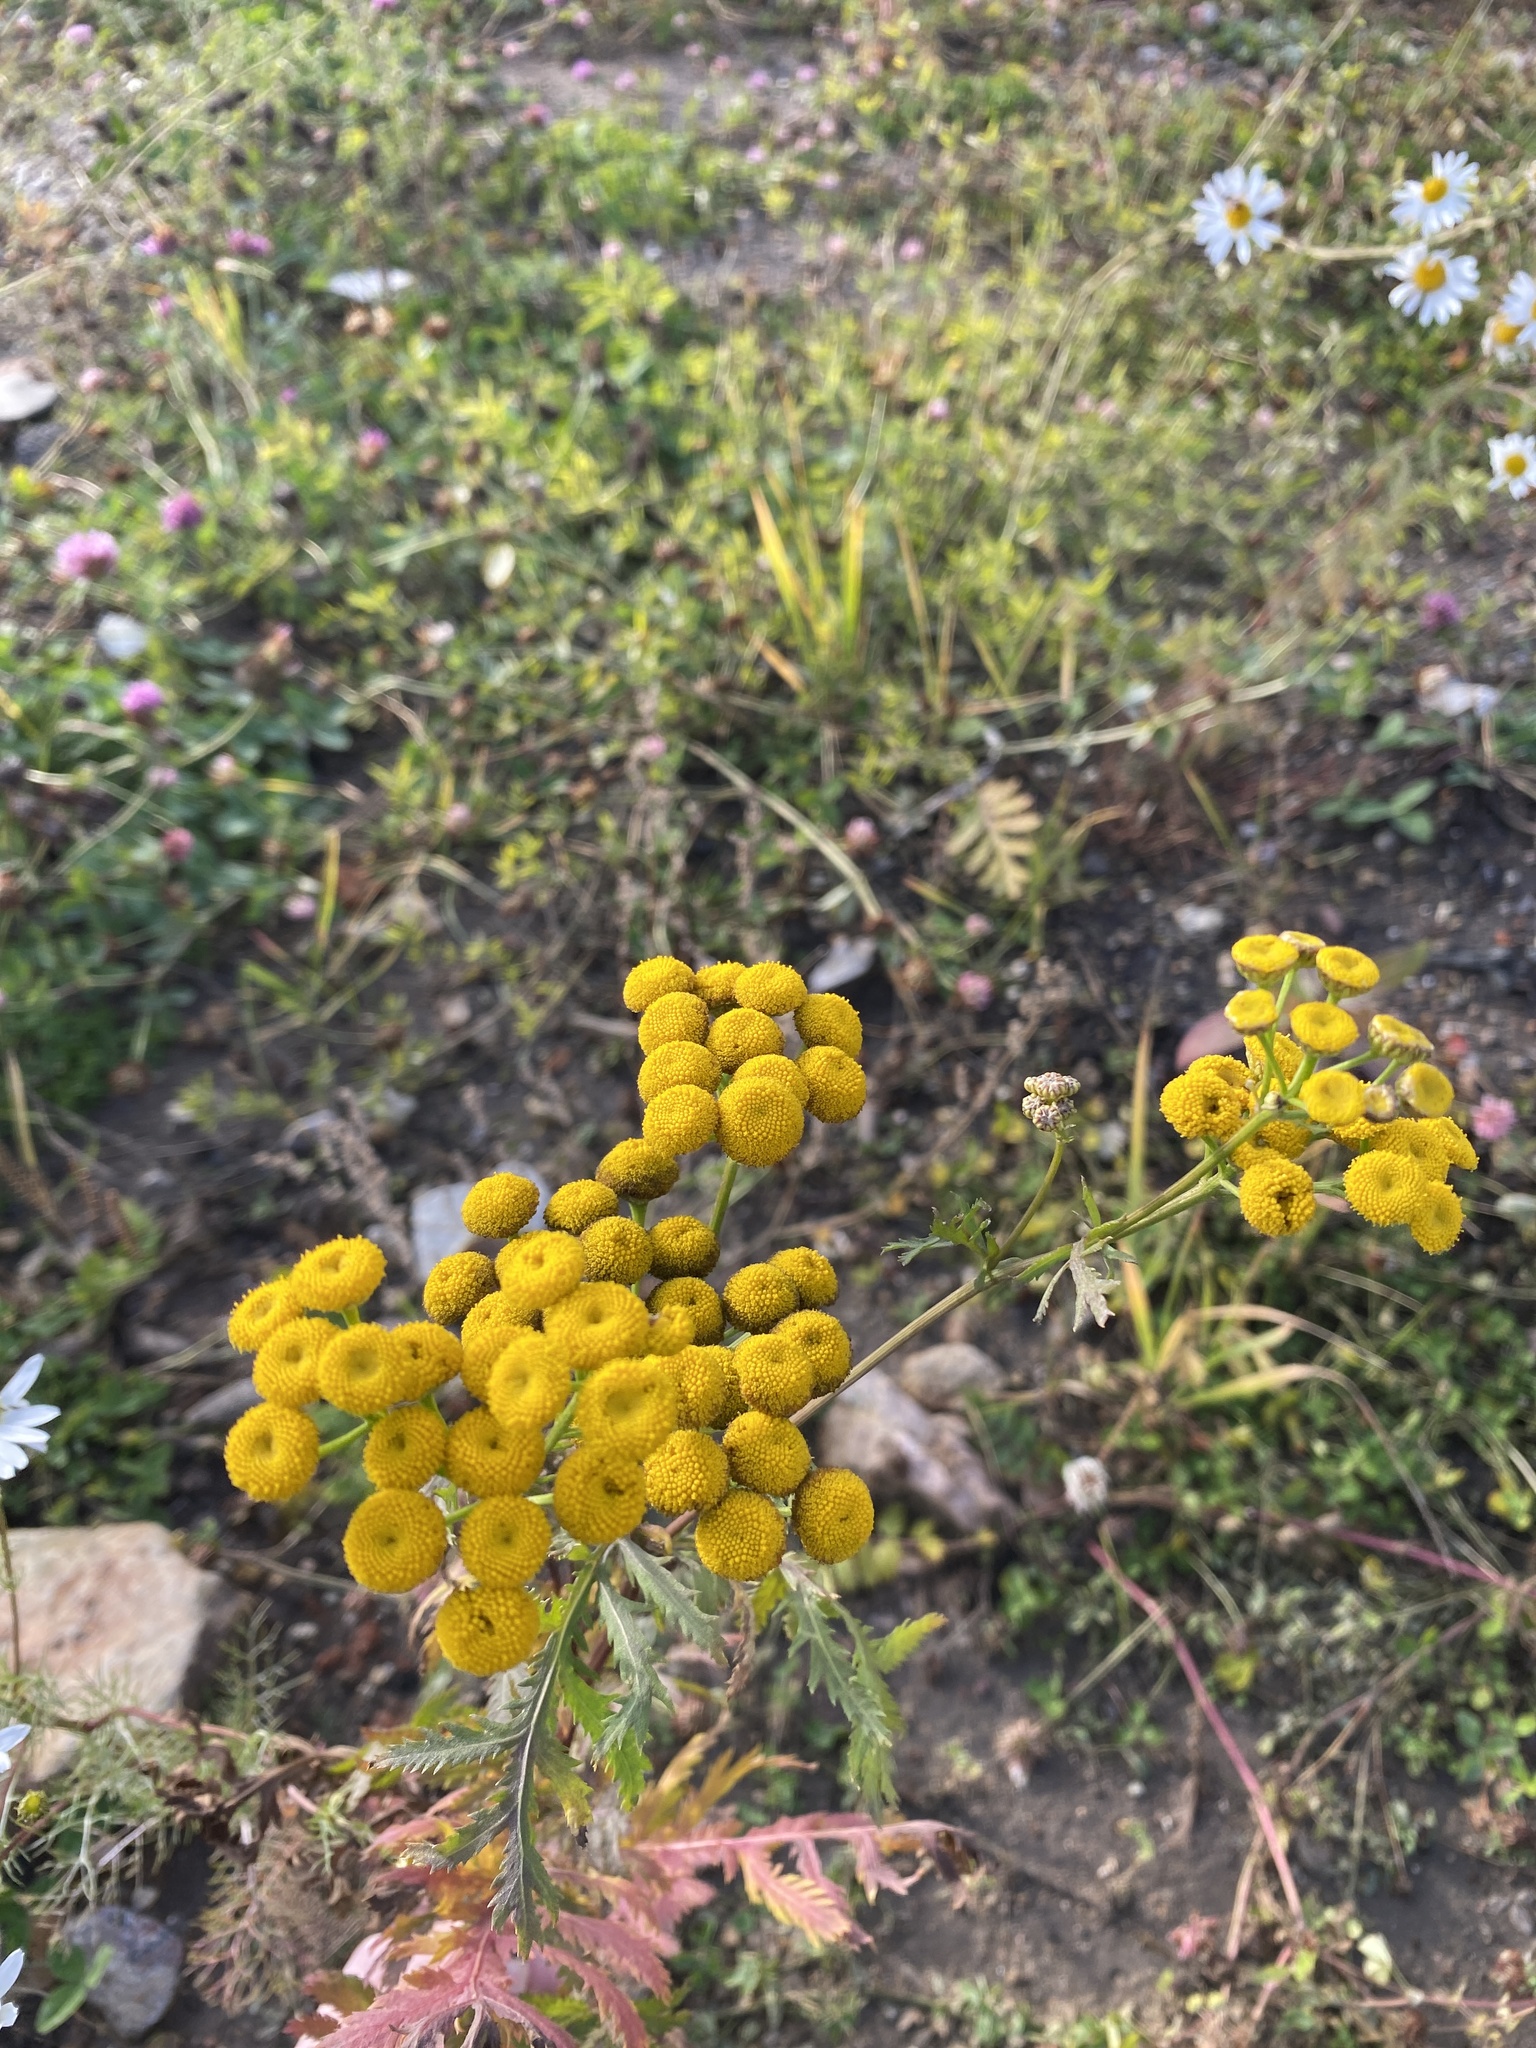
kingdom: Plantae
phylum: Tracheophyta
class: Magnoliopsida
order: Asterales
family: Asteraceae
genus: Tanacetum
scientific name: Tanacetum vulgare
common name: Common tansy
